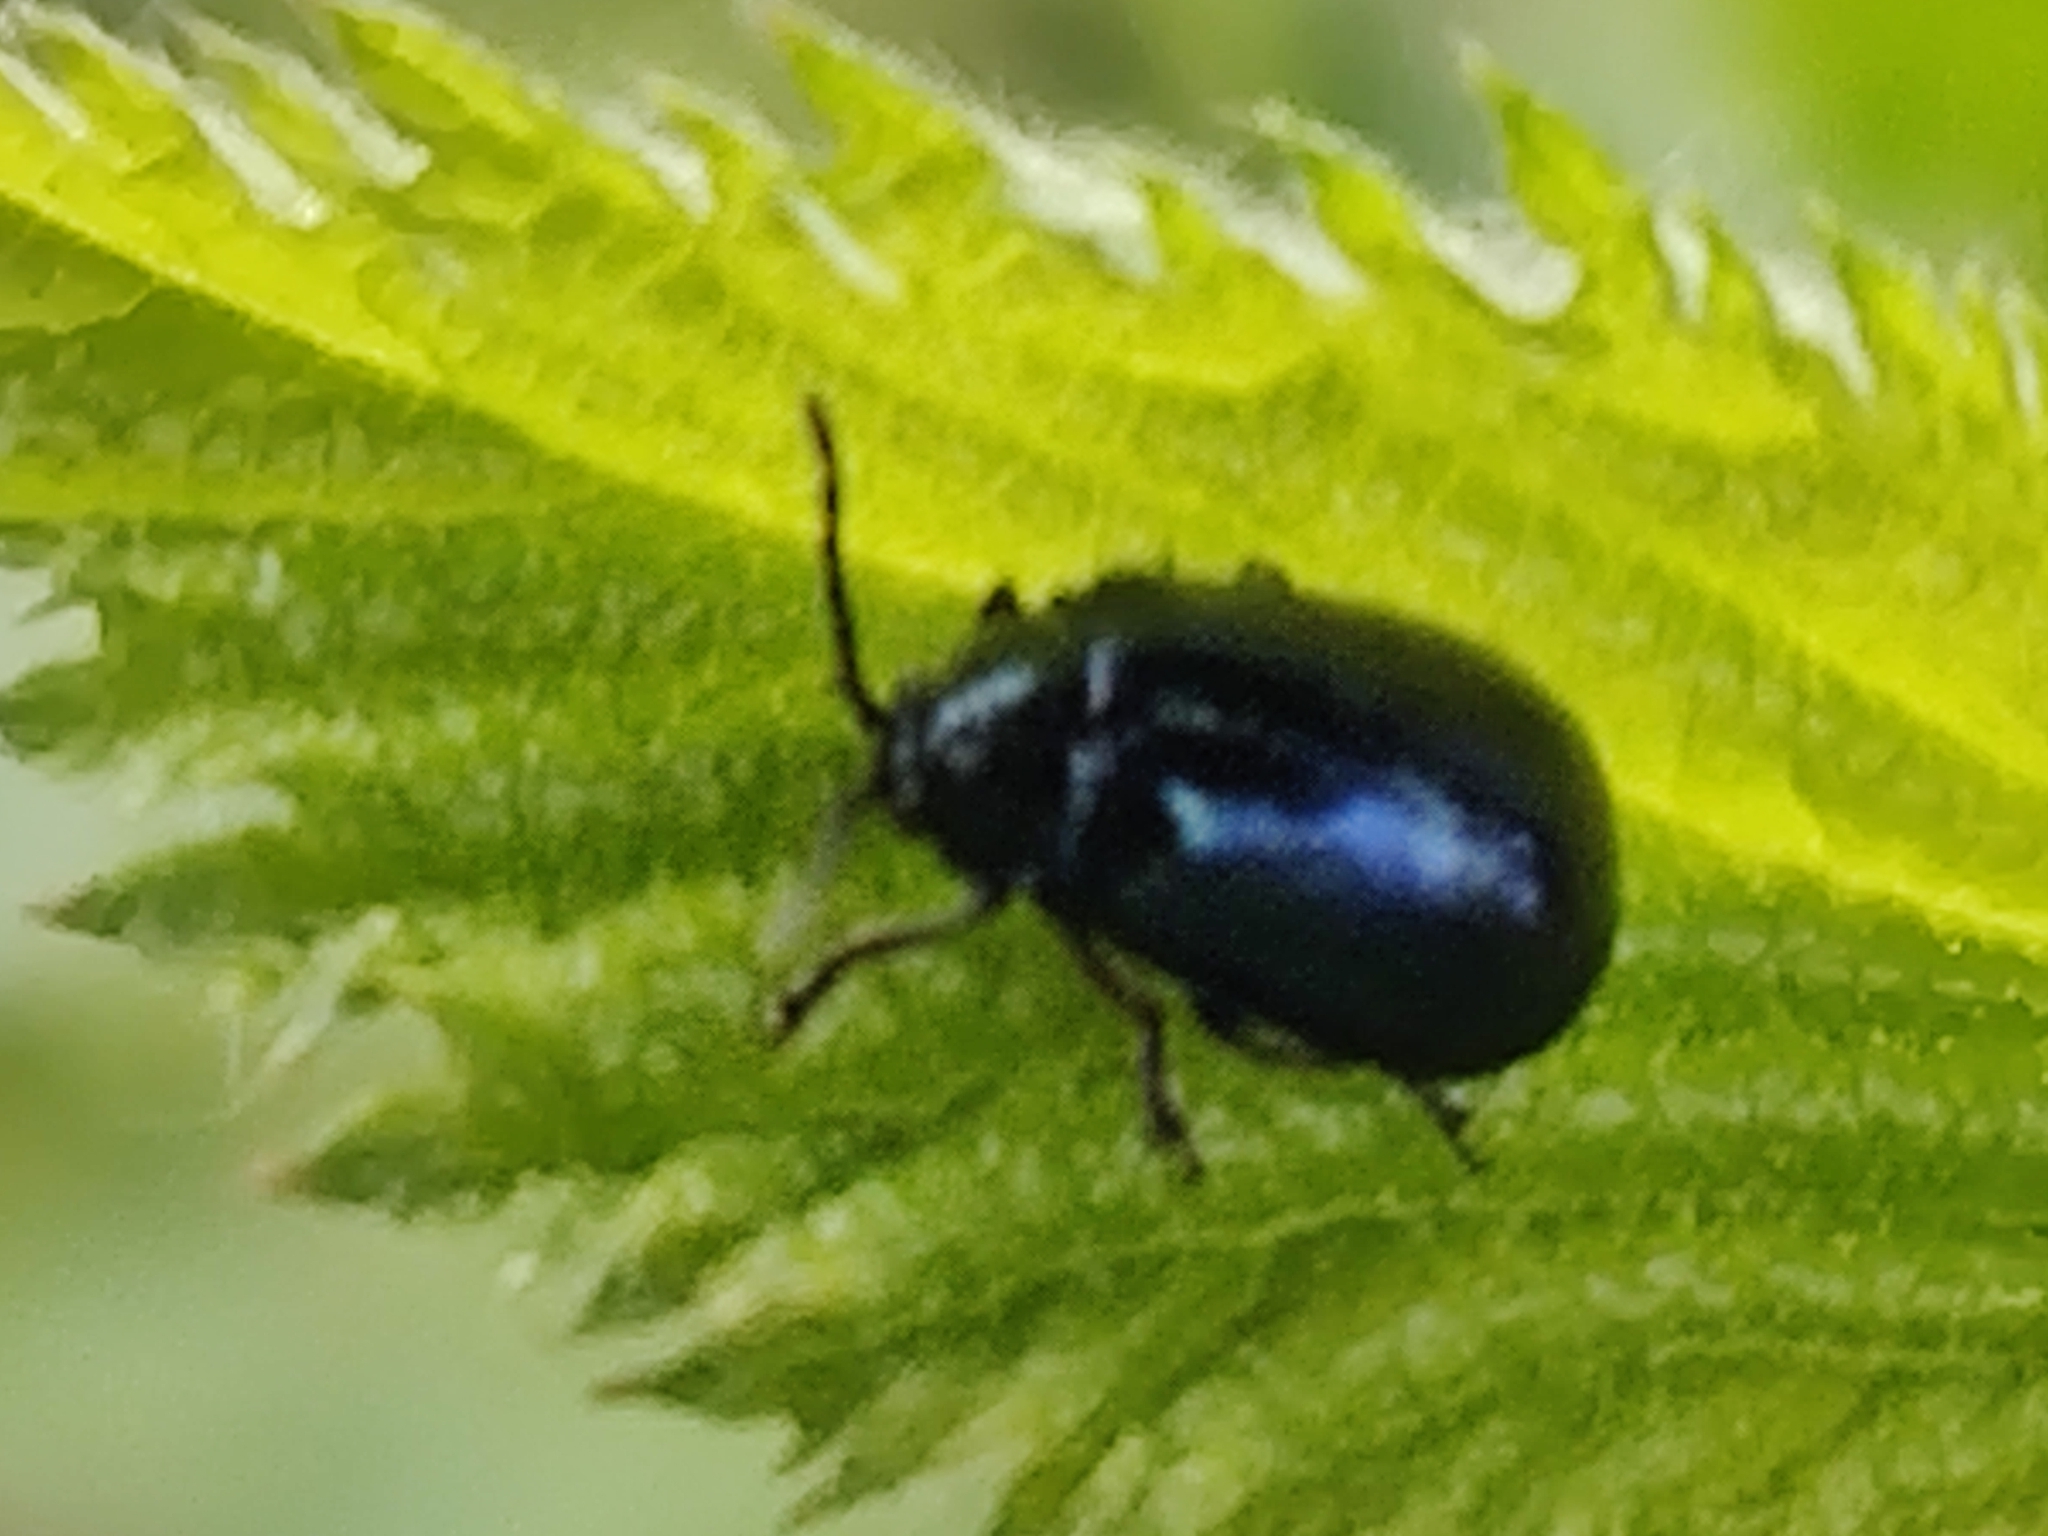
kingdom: Animalia
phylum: Arthropoda
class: Insecta
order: Coleoptera
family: Chrysomelidae
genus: Agelastica
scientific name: Agelastica alni
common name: Alder leaf beetle
